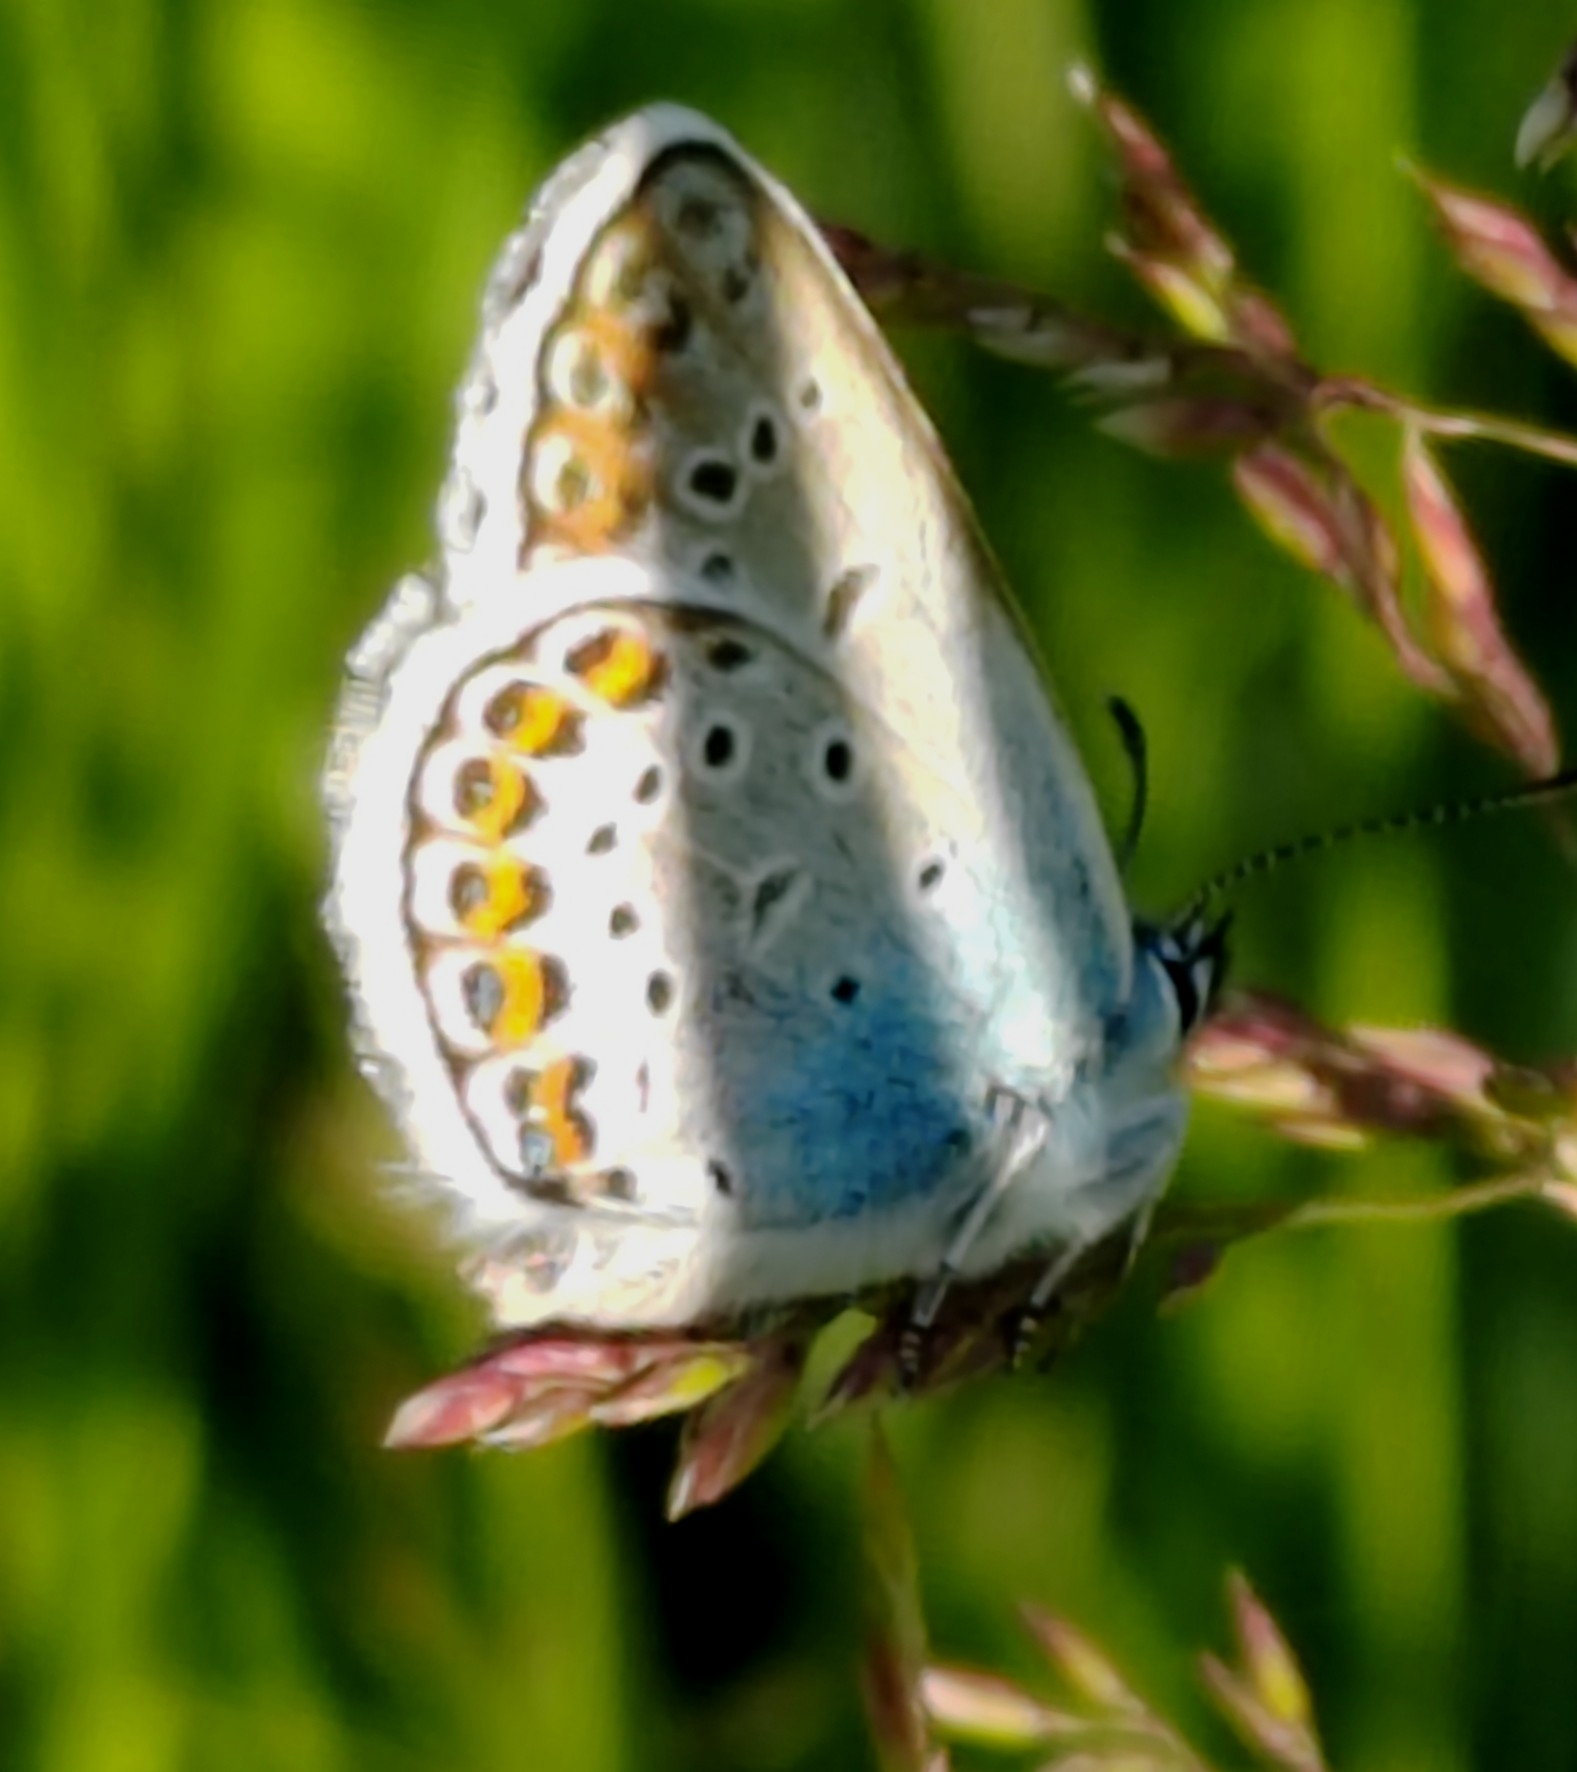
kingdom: Animalia
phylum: Arthropoda
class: Insecta
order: Lepidoptera
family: Lycaenidae
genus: Plebejus
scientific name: Plebejus argus
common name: Silver-studded blue
